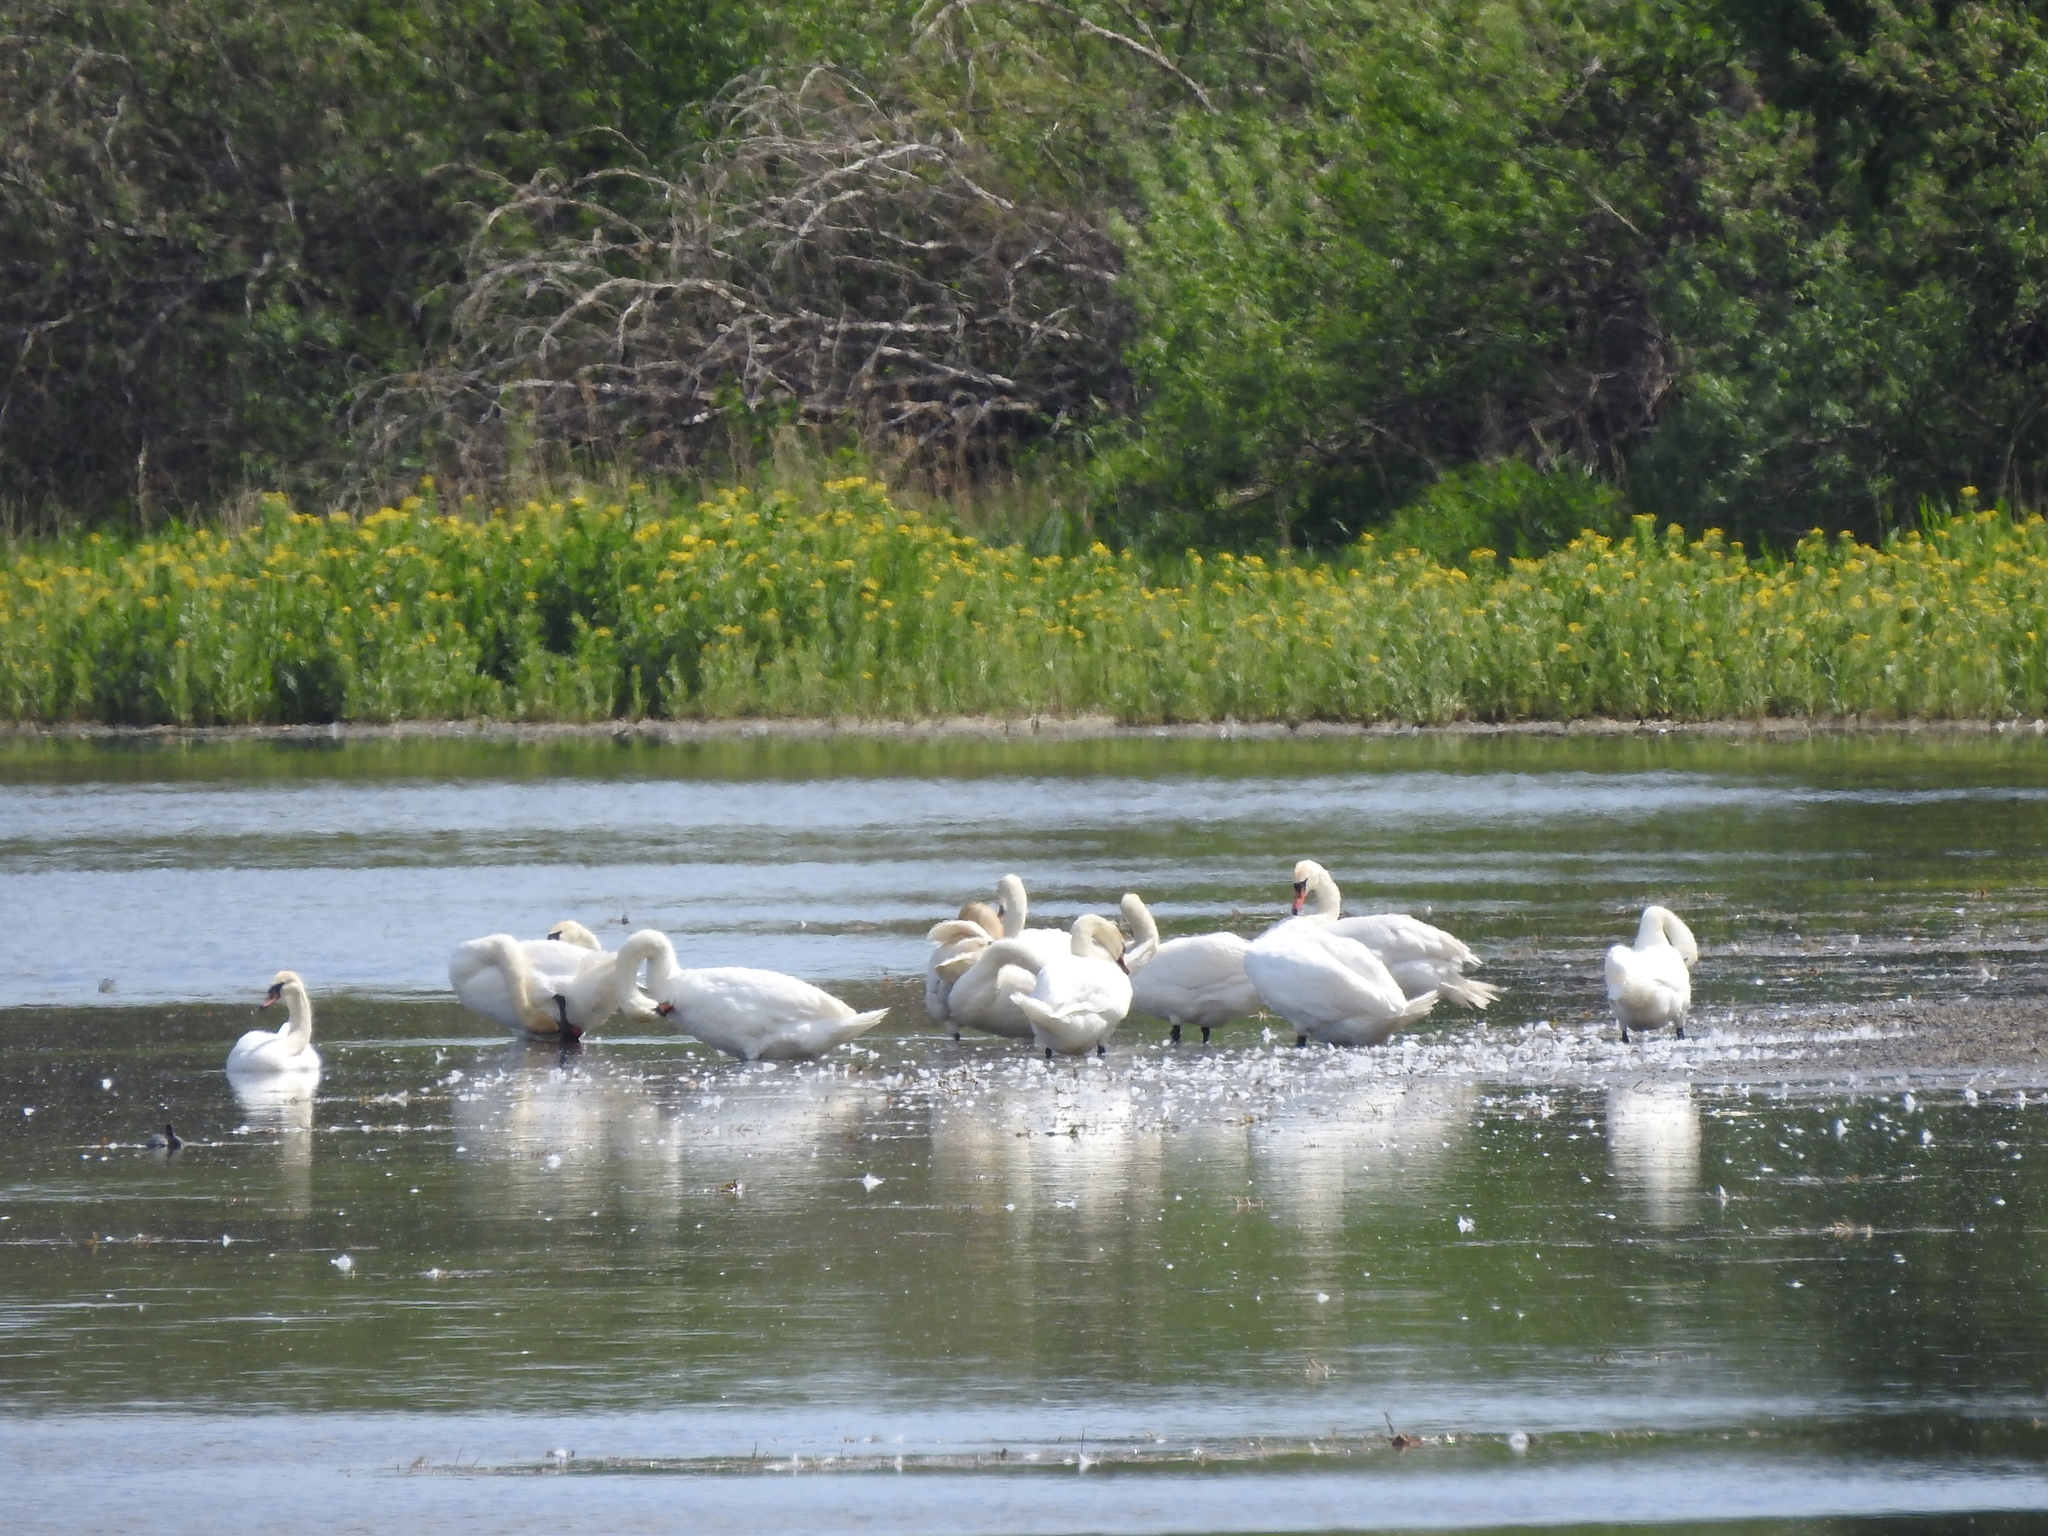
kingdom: Animalia
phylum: Chordata
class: Aves
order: Anseriformes
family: Anatidae
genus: Cygnus
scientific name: Cygnus olor
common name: Mute swan
